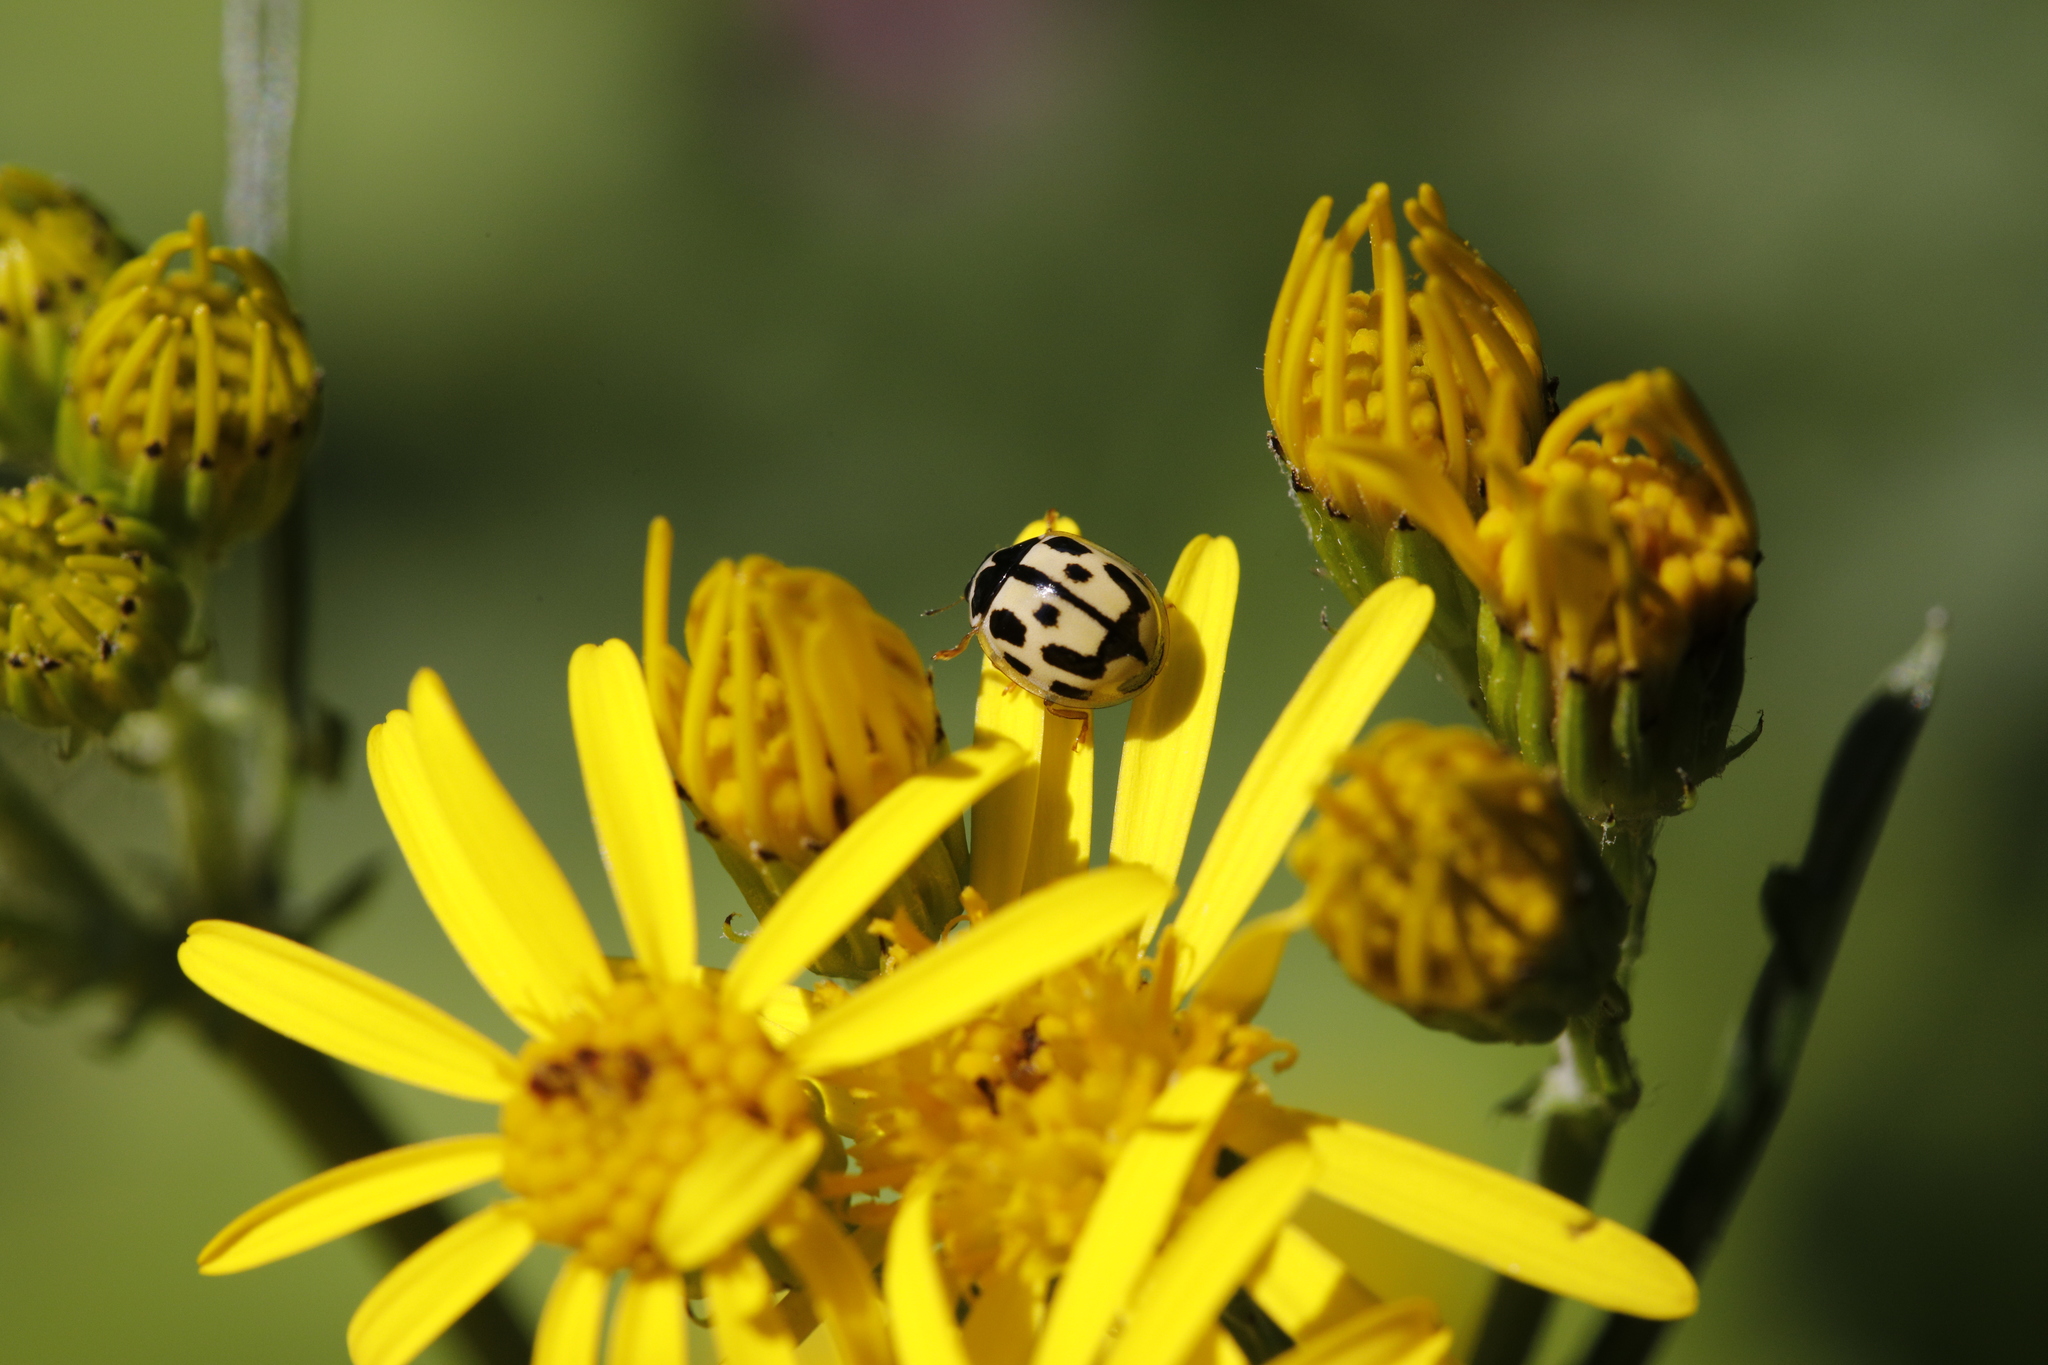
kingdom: Animalia
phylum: Arthropoda
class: Insecta
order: Coleoptera
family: Coccinellidae
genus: Propylaea
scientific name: Propylaea quatuordecimpunctata
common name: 14-spotted ladybird beetle
